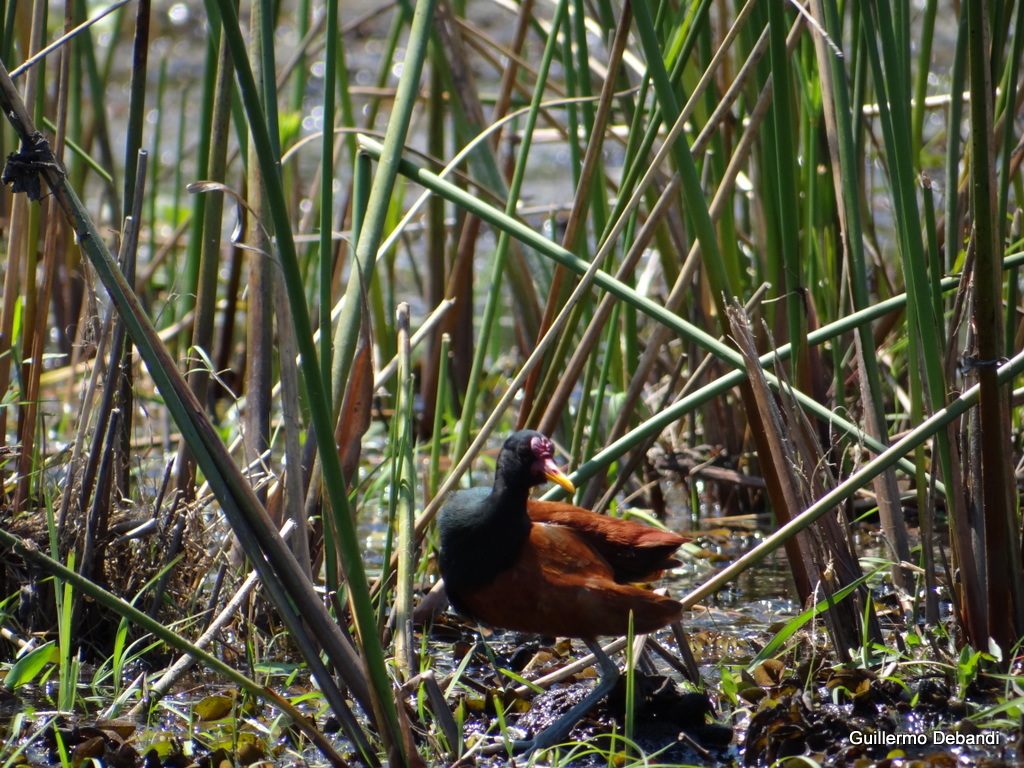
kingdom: Animalia
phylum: Chordata
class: Aves
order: Charadriiformes
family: Jacanidae
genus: Jacana
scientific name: Jacana jacana
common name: Wattled jacana
